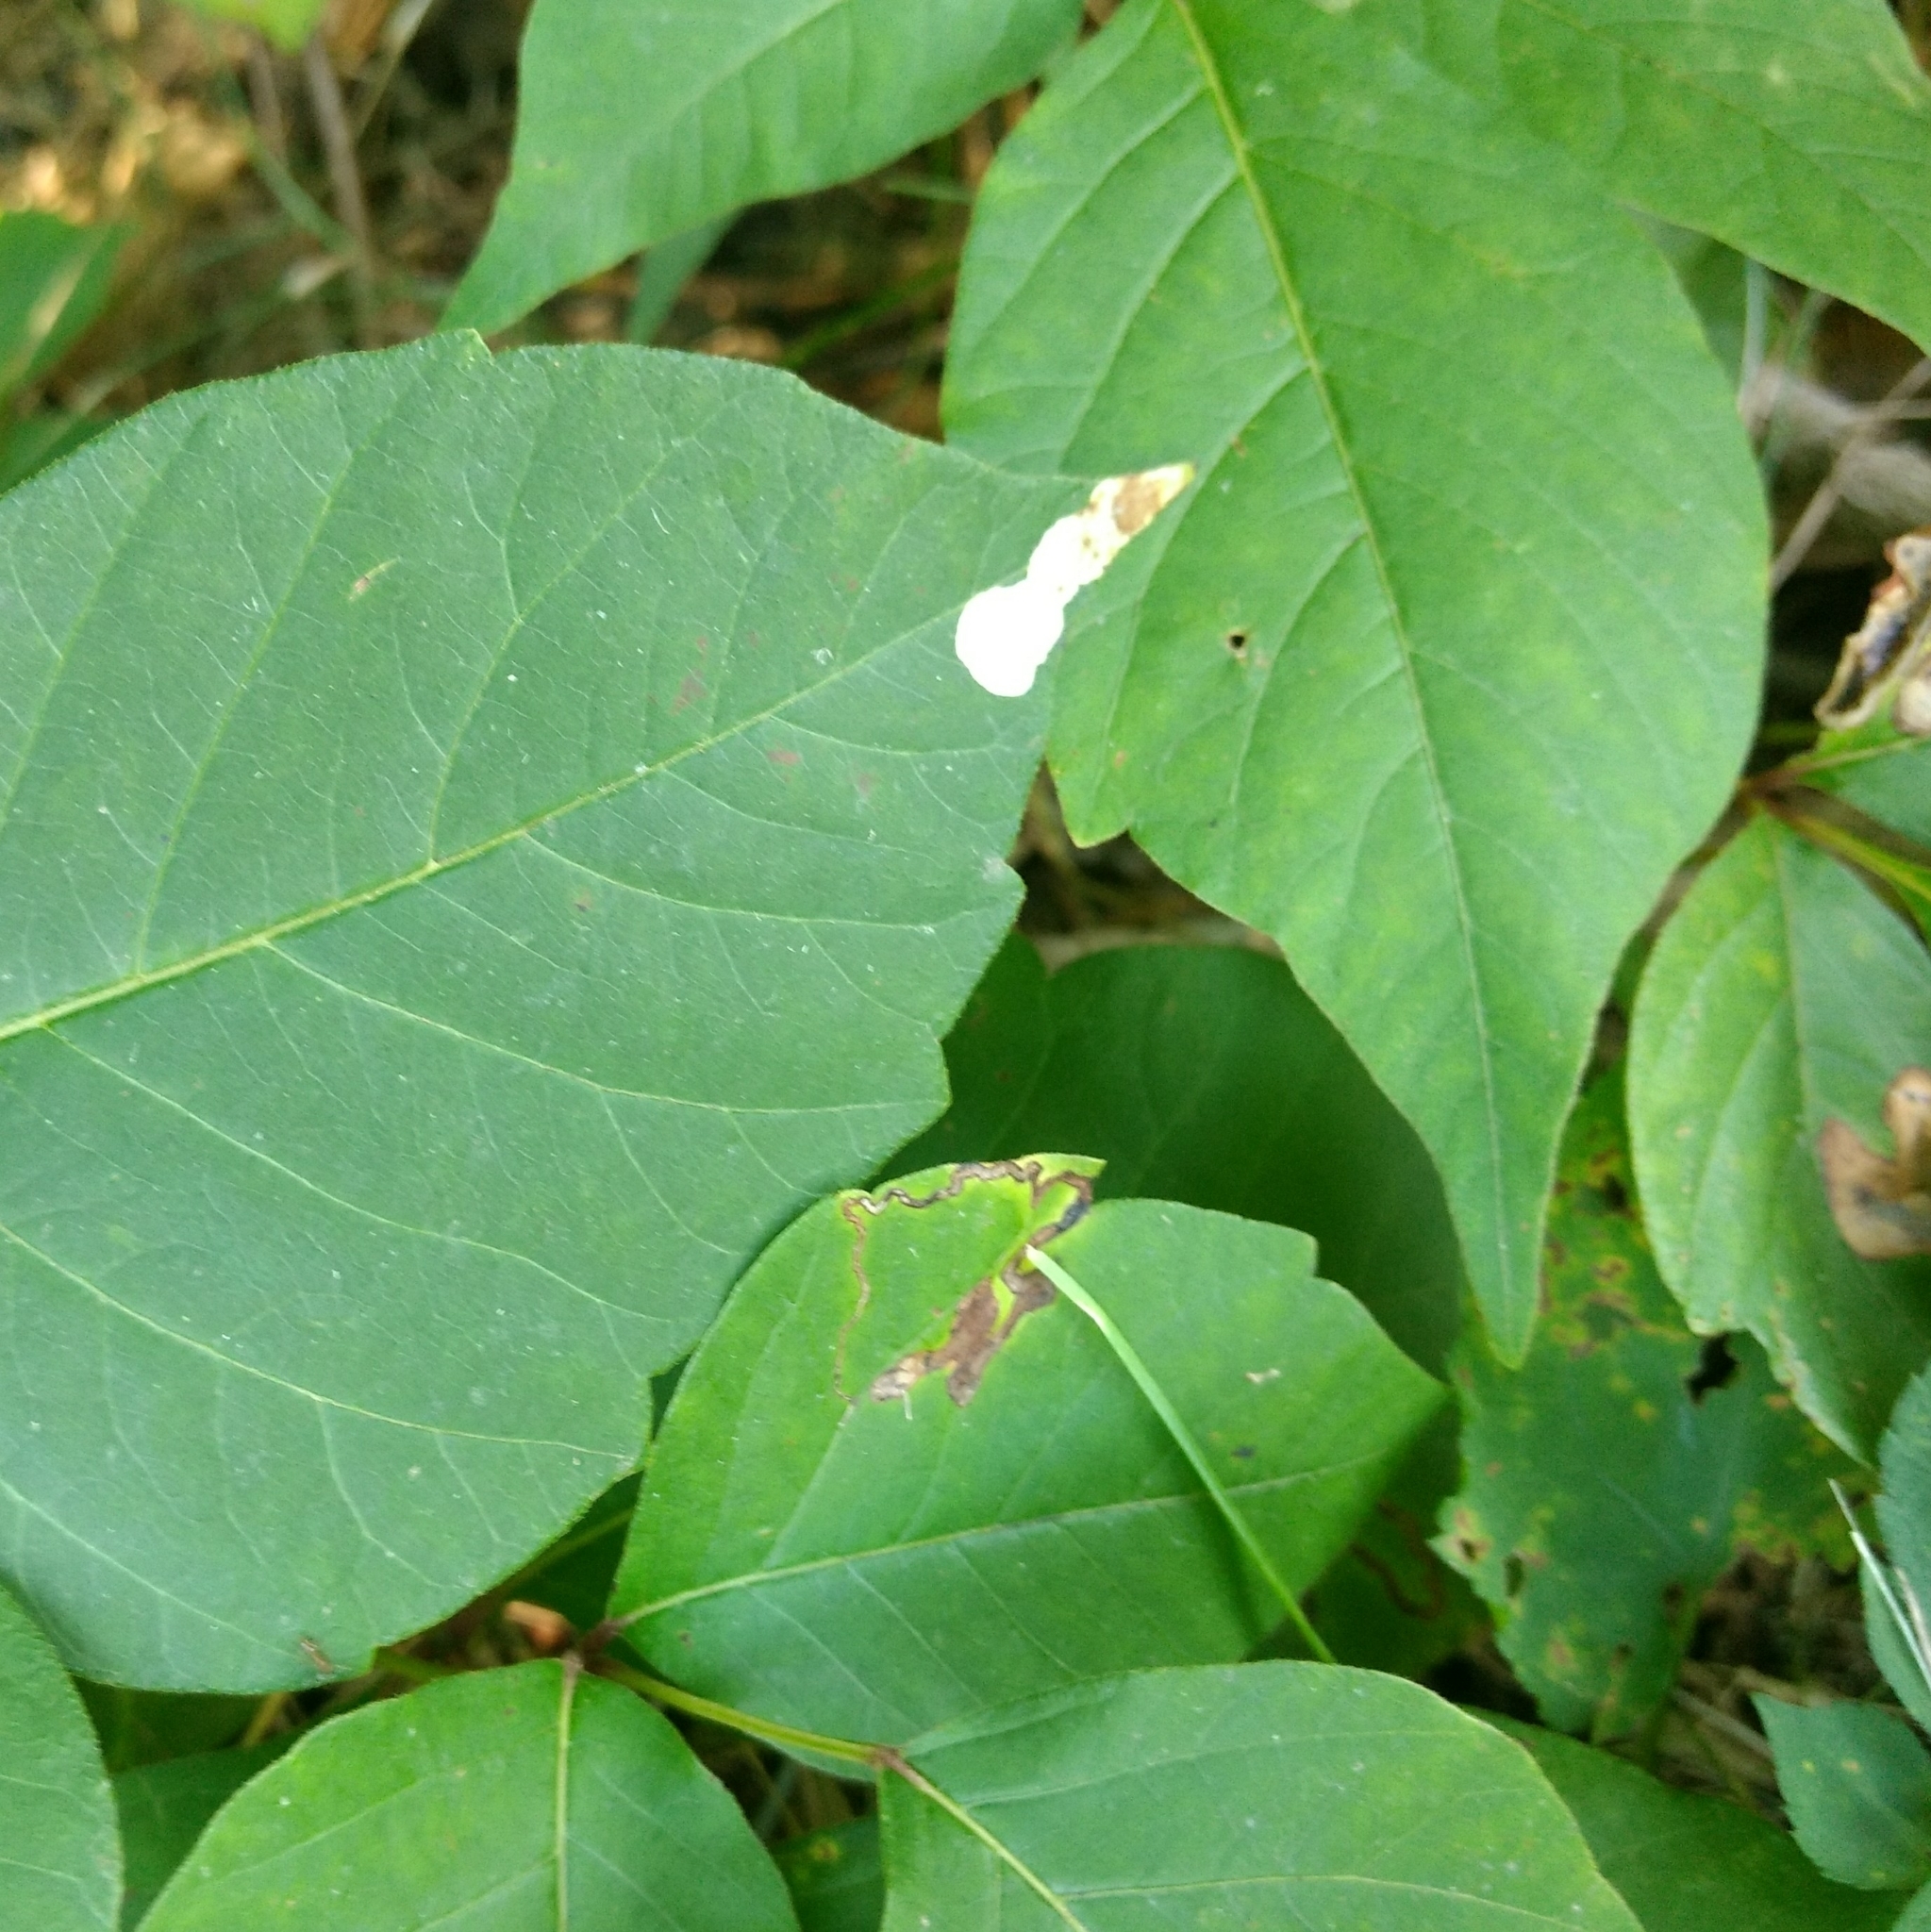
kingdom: Animalia
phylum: Arthropoda
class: Insecta
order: Lepidoptera
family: Nepticulidae
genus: Stigmella
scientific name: Stigmella rhoifoliella
